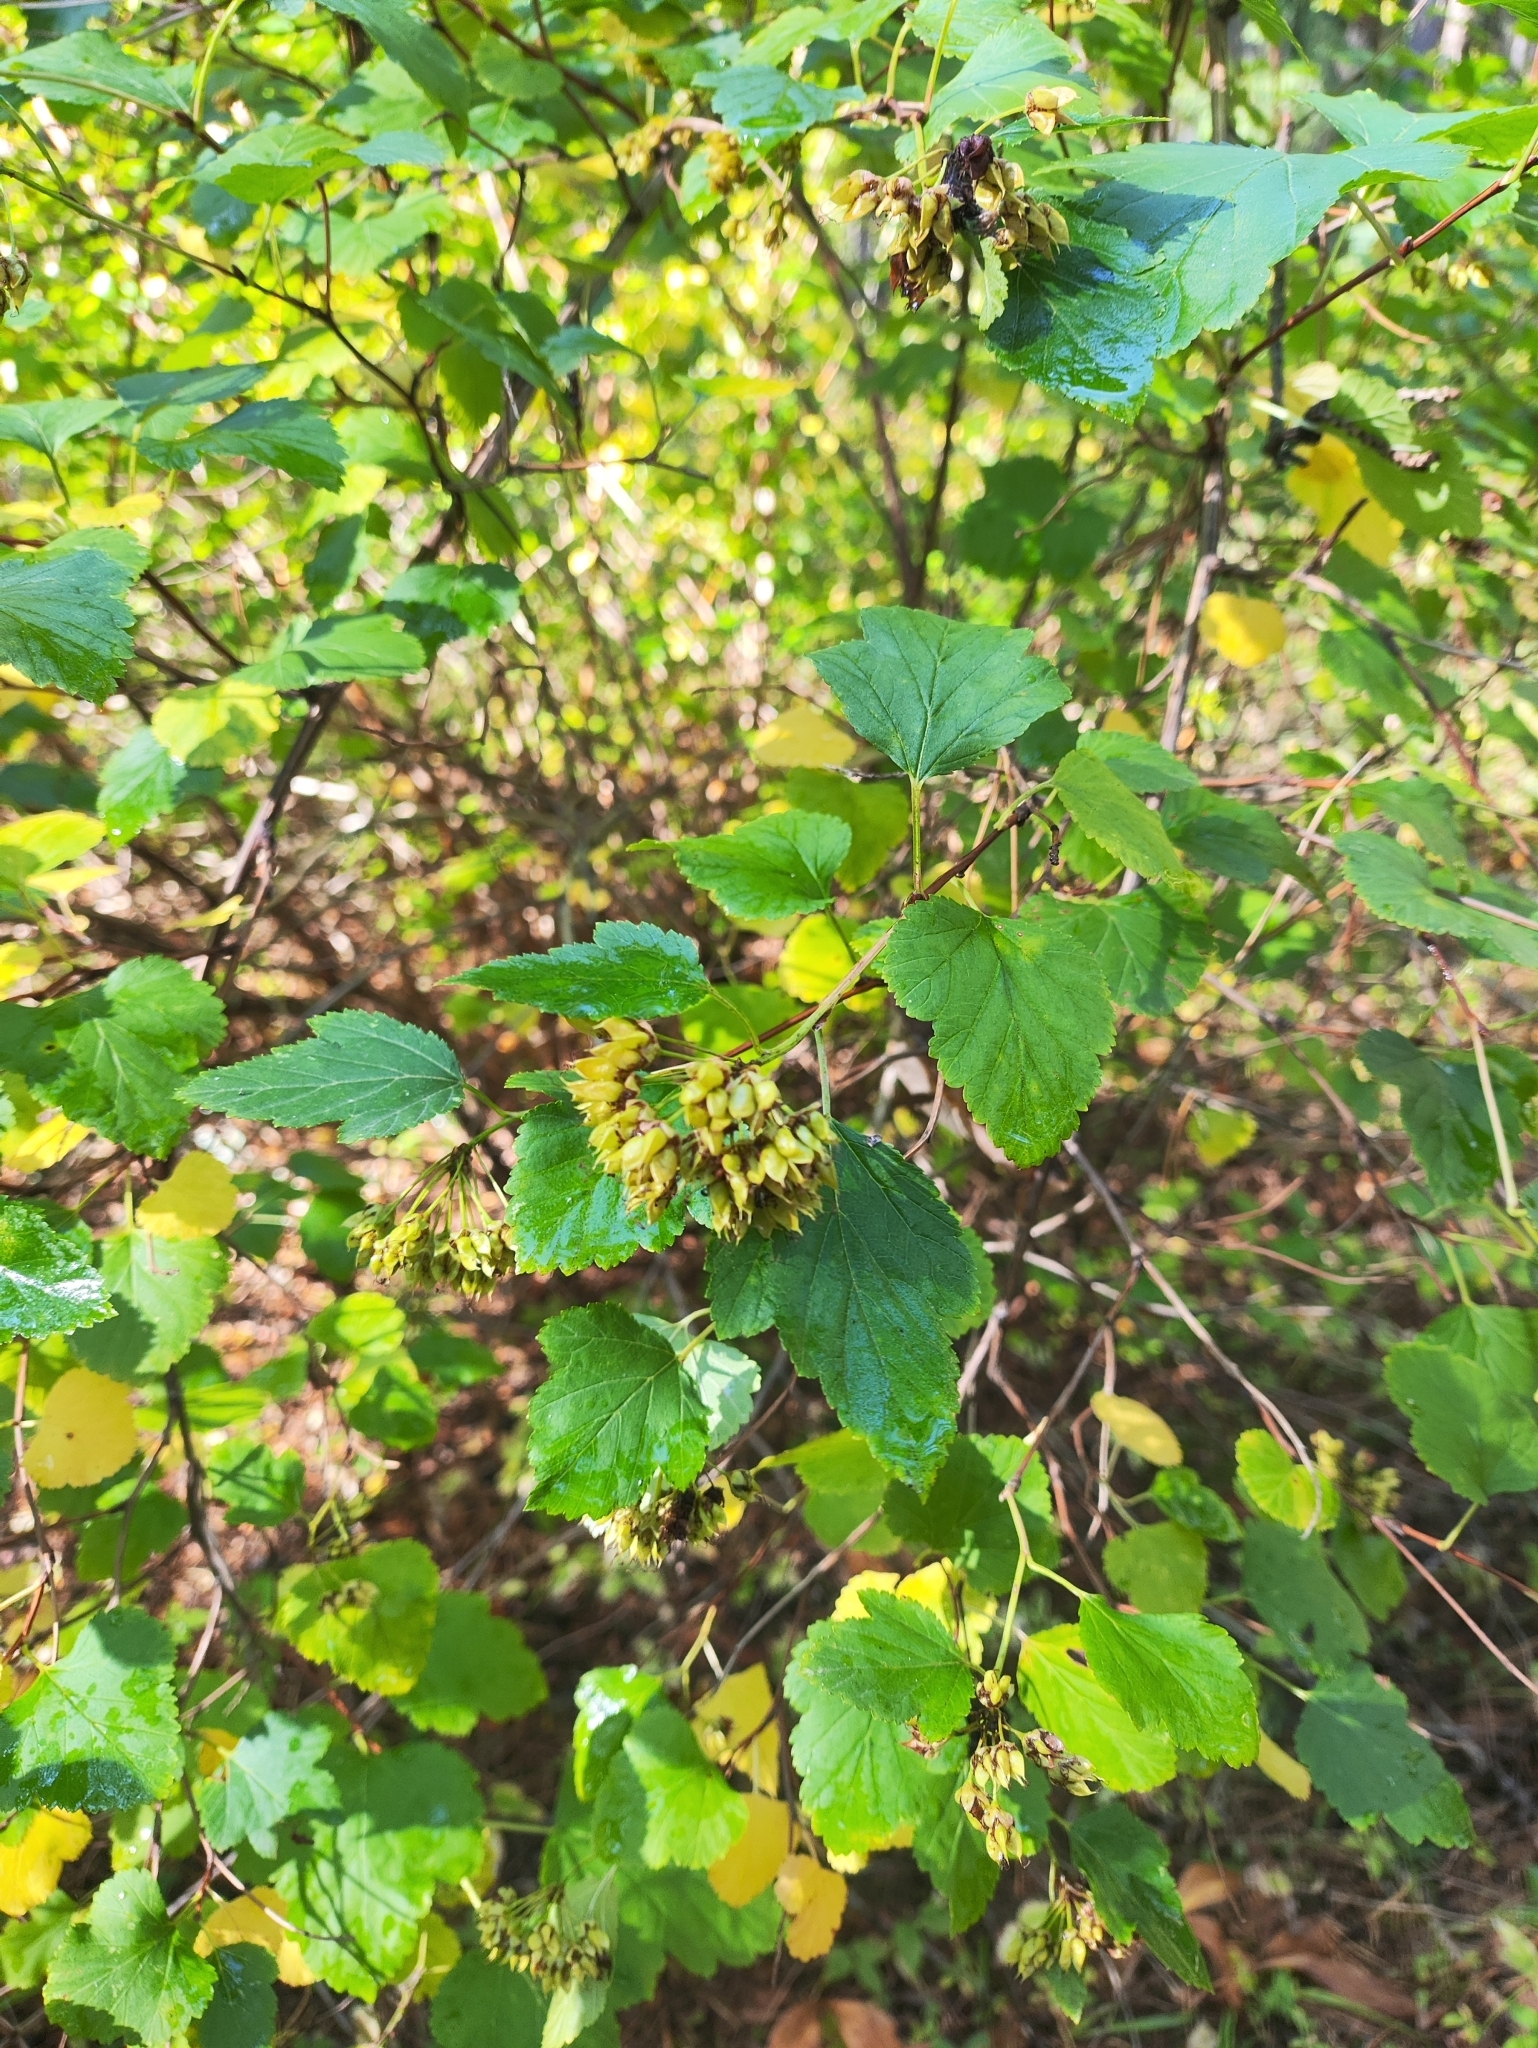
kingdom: Plantae
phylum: Tracheophyta
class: Magnoliopsida
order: Rosales
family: Rosaceae
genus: Physocarpus
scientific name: Physocarpus opulifolius
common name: Ninebark
